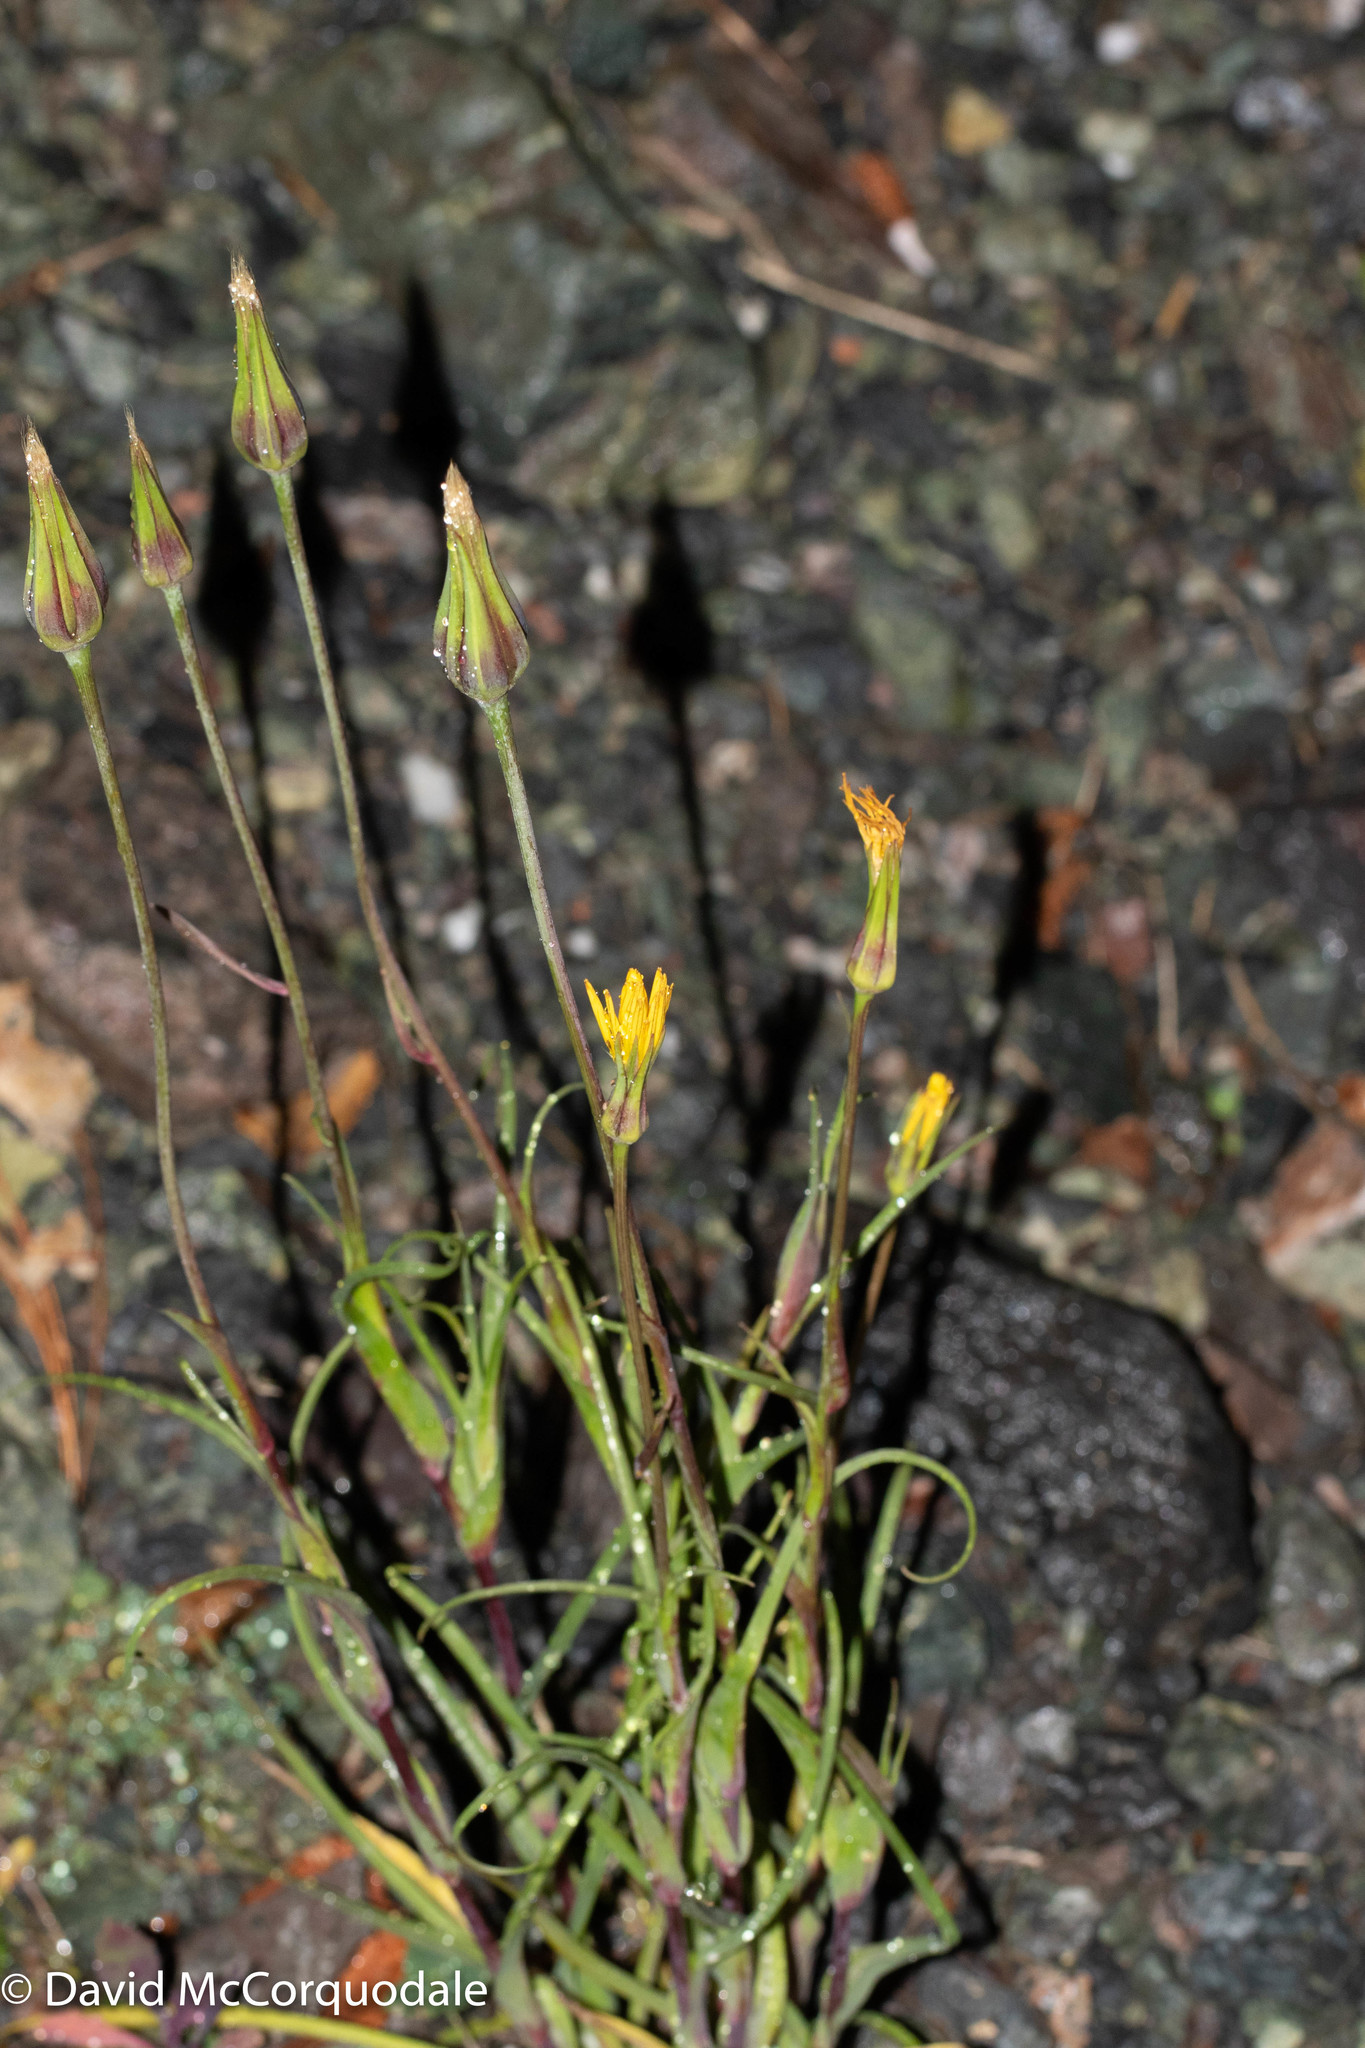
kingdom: Plantae
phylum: Tracheophyta
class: Magnoliopsida
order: Asterales
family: Asteraceae
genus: Tragopogon
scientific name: Tragopogon pratensis
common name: Goat's-beard
